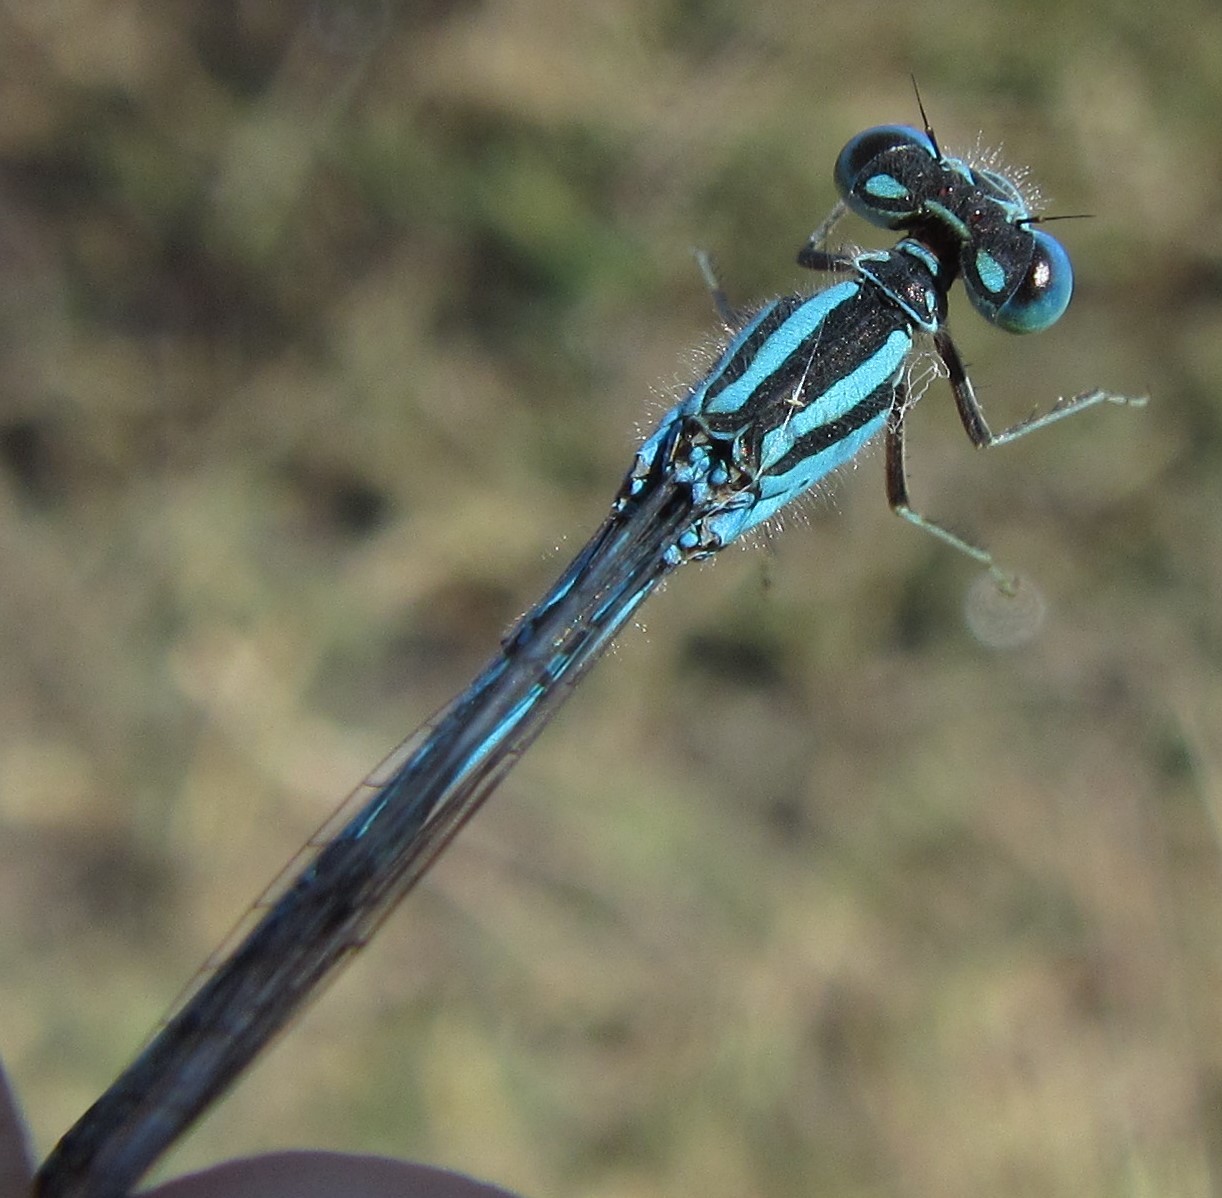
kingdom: Animalia
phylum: Arthropoda
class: Insecta
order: Odonata
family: Coenagrionidae
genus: Pseudagrion
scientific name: Pseudagrion assegaii
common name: Assegaai sprite
